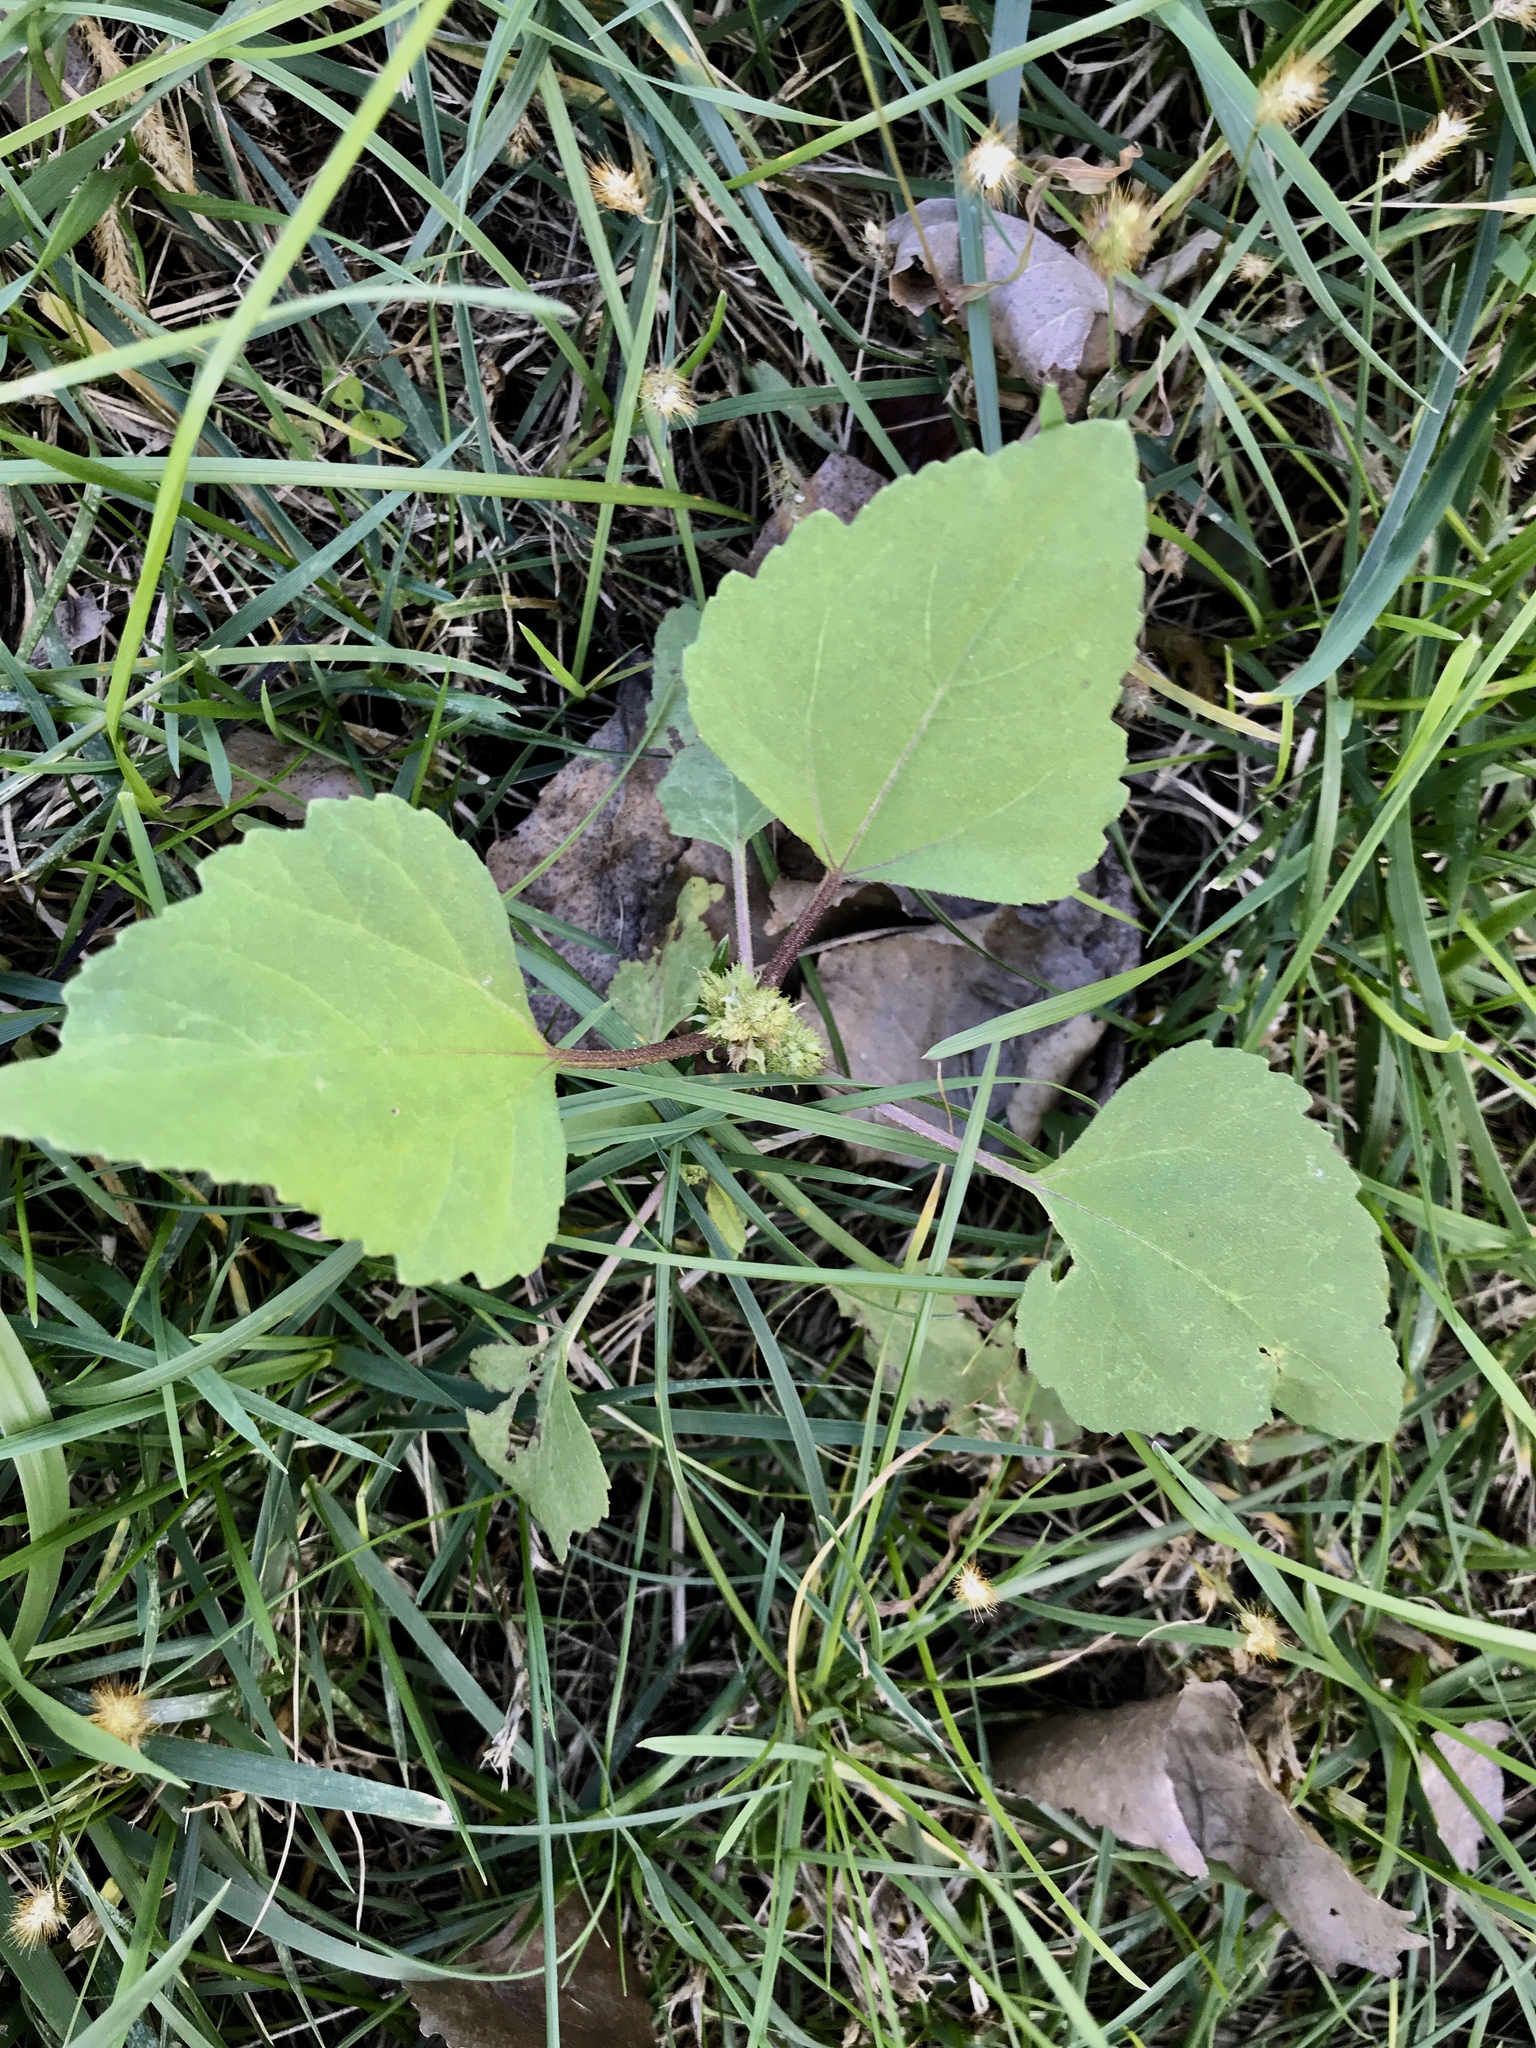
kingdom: Plantae
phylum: Tracheophyta
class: Magnoliopsida
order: Asterales
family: Asteraceae
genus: Xanthium
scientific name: Xanthium strumarium
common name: Rough cocklebur
